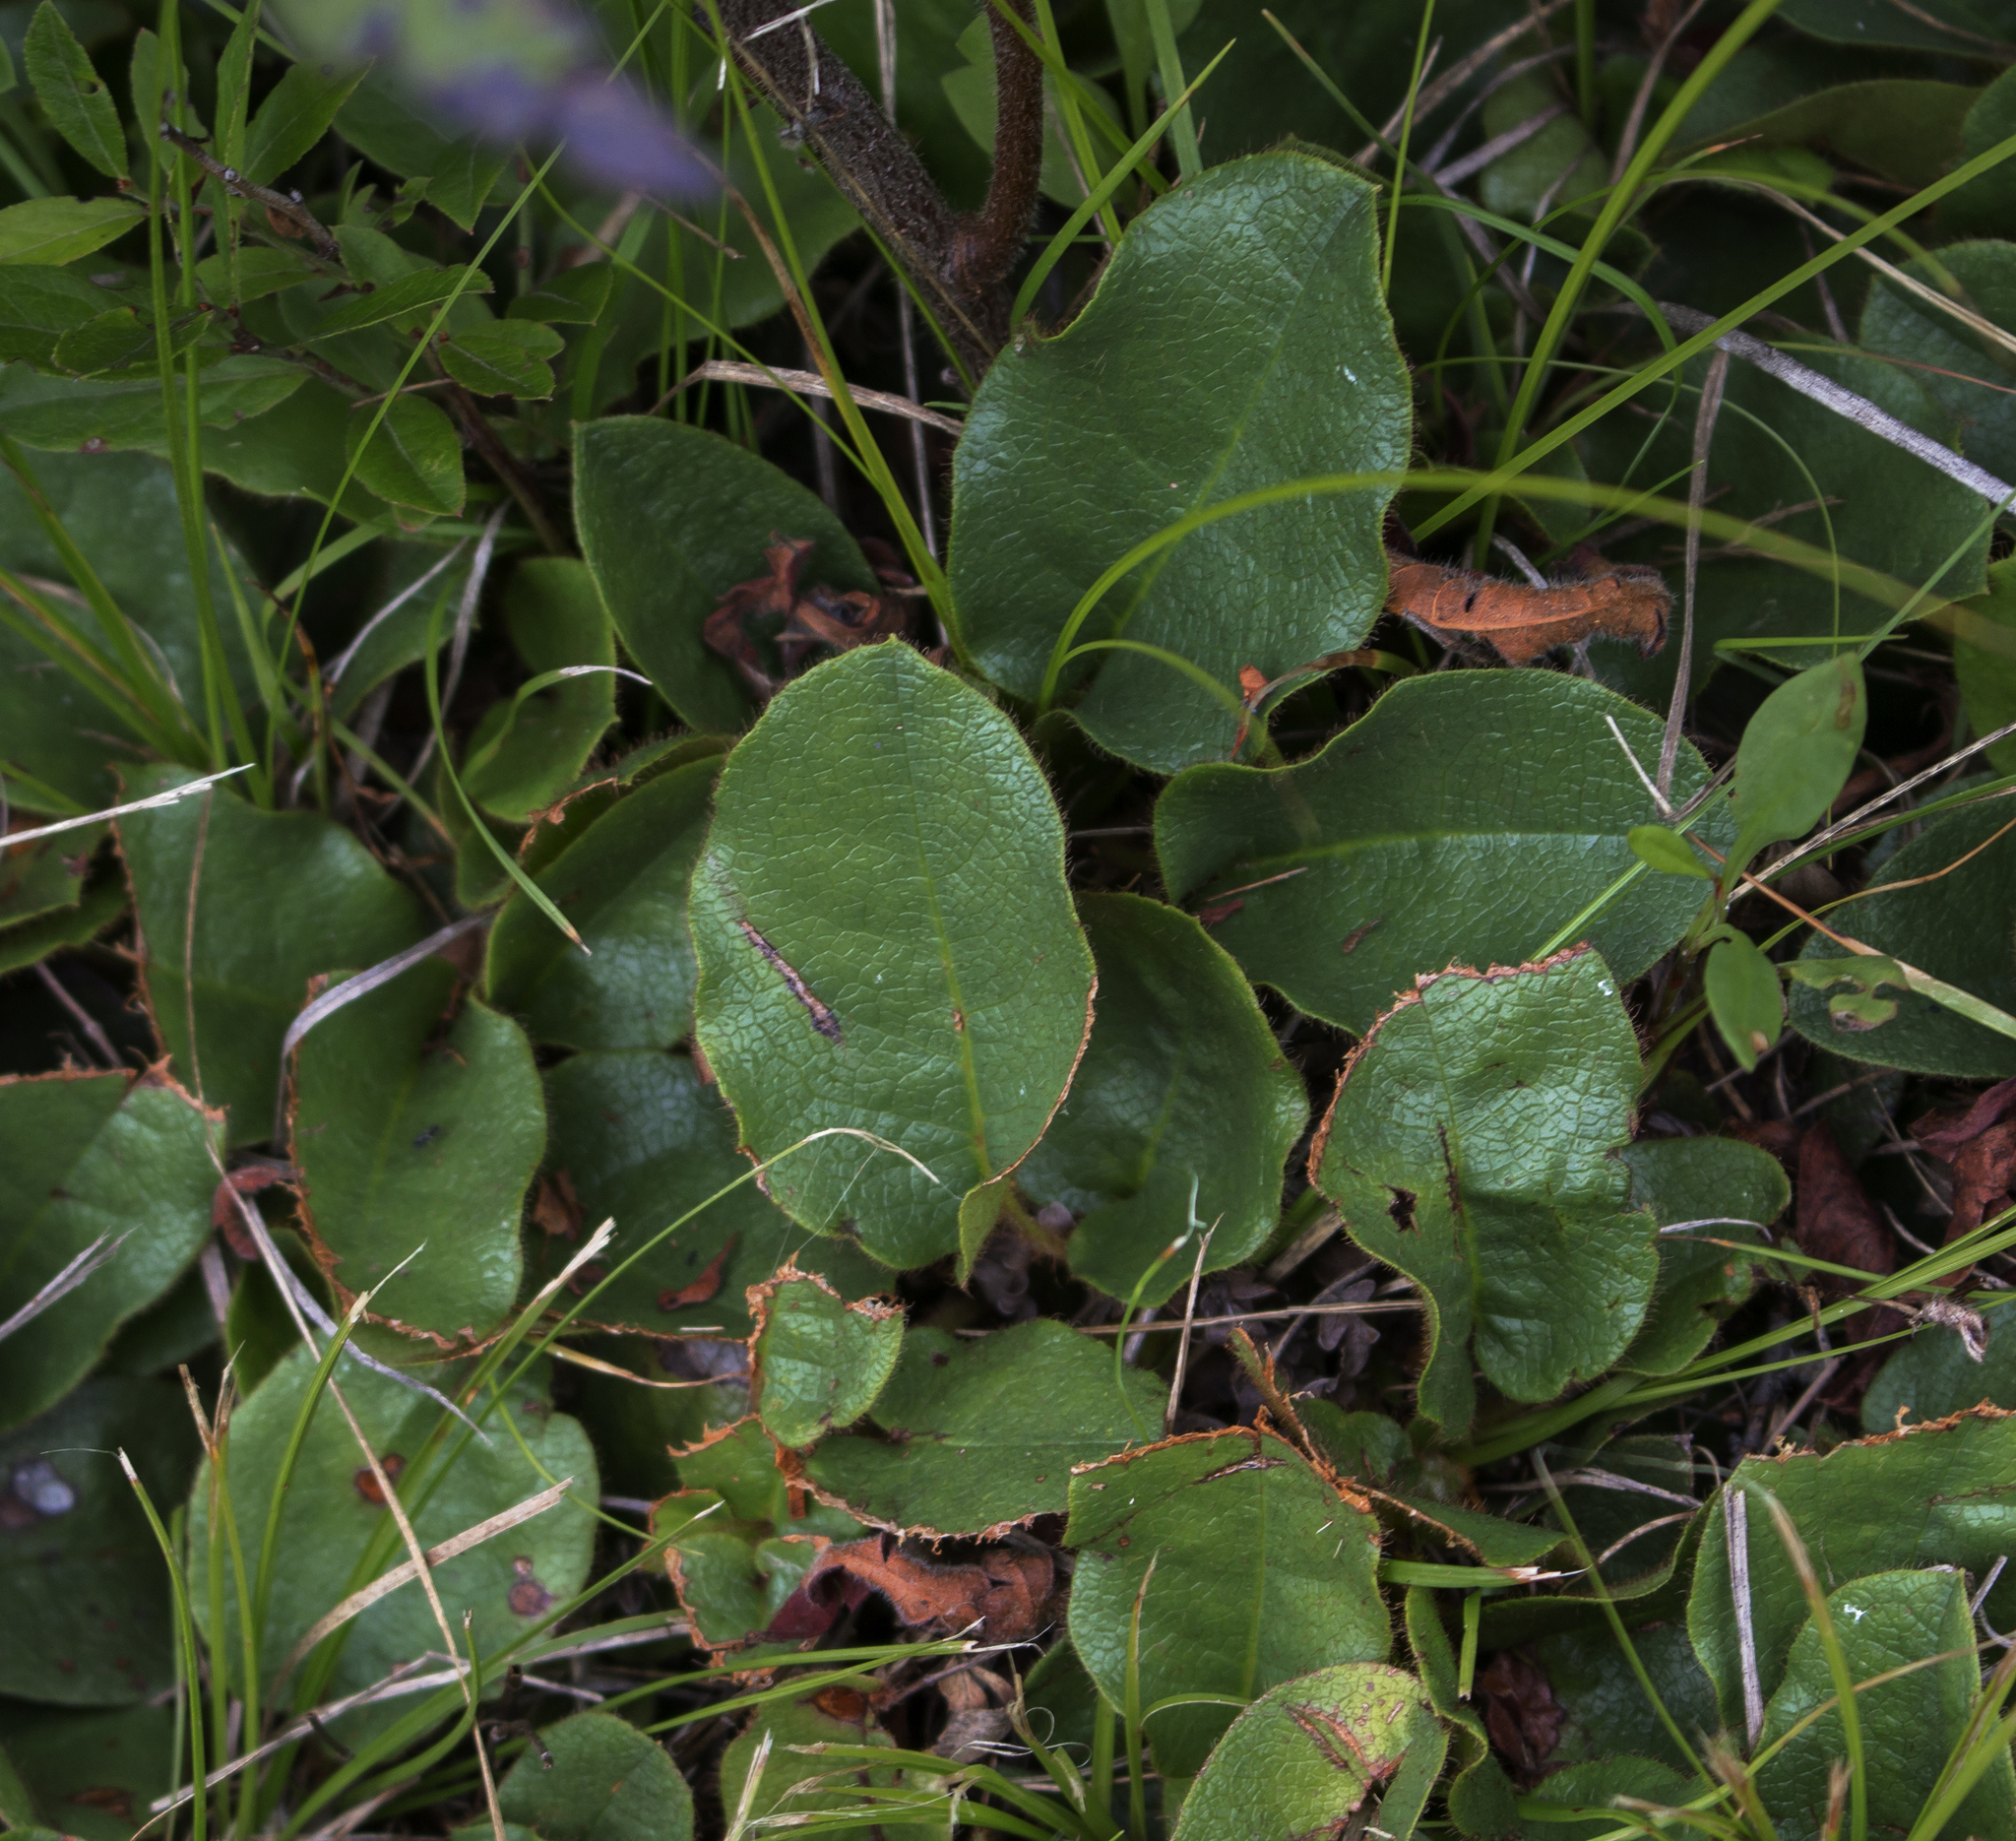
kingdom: Plantae
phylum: Tracheophyta
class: Magnoliopsida
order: Ericales
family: Ericaceae
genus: Epigaea
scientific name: Epigaea repens
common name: Gravelroot
